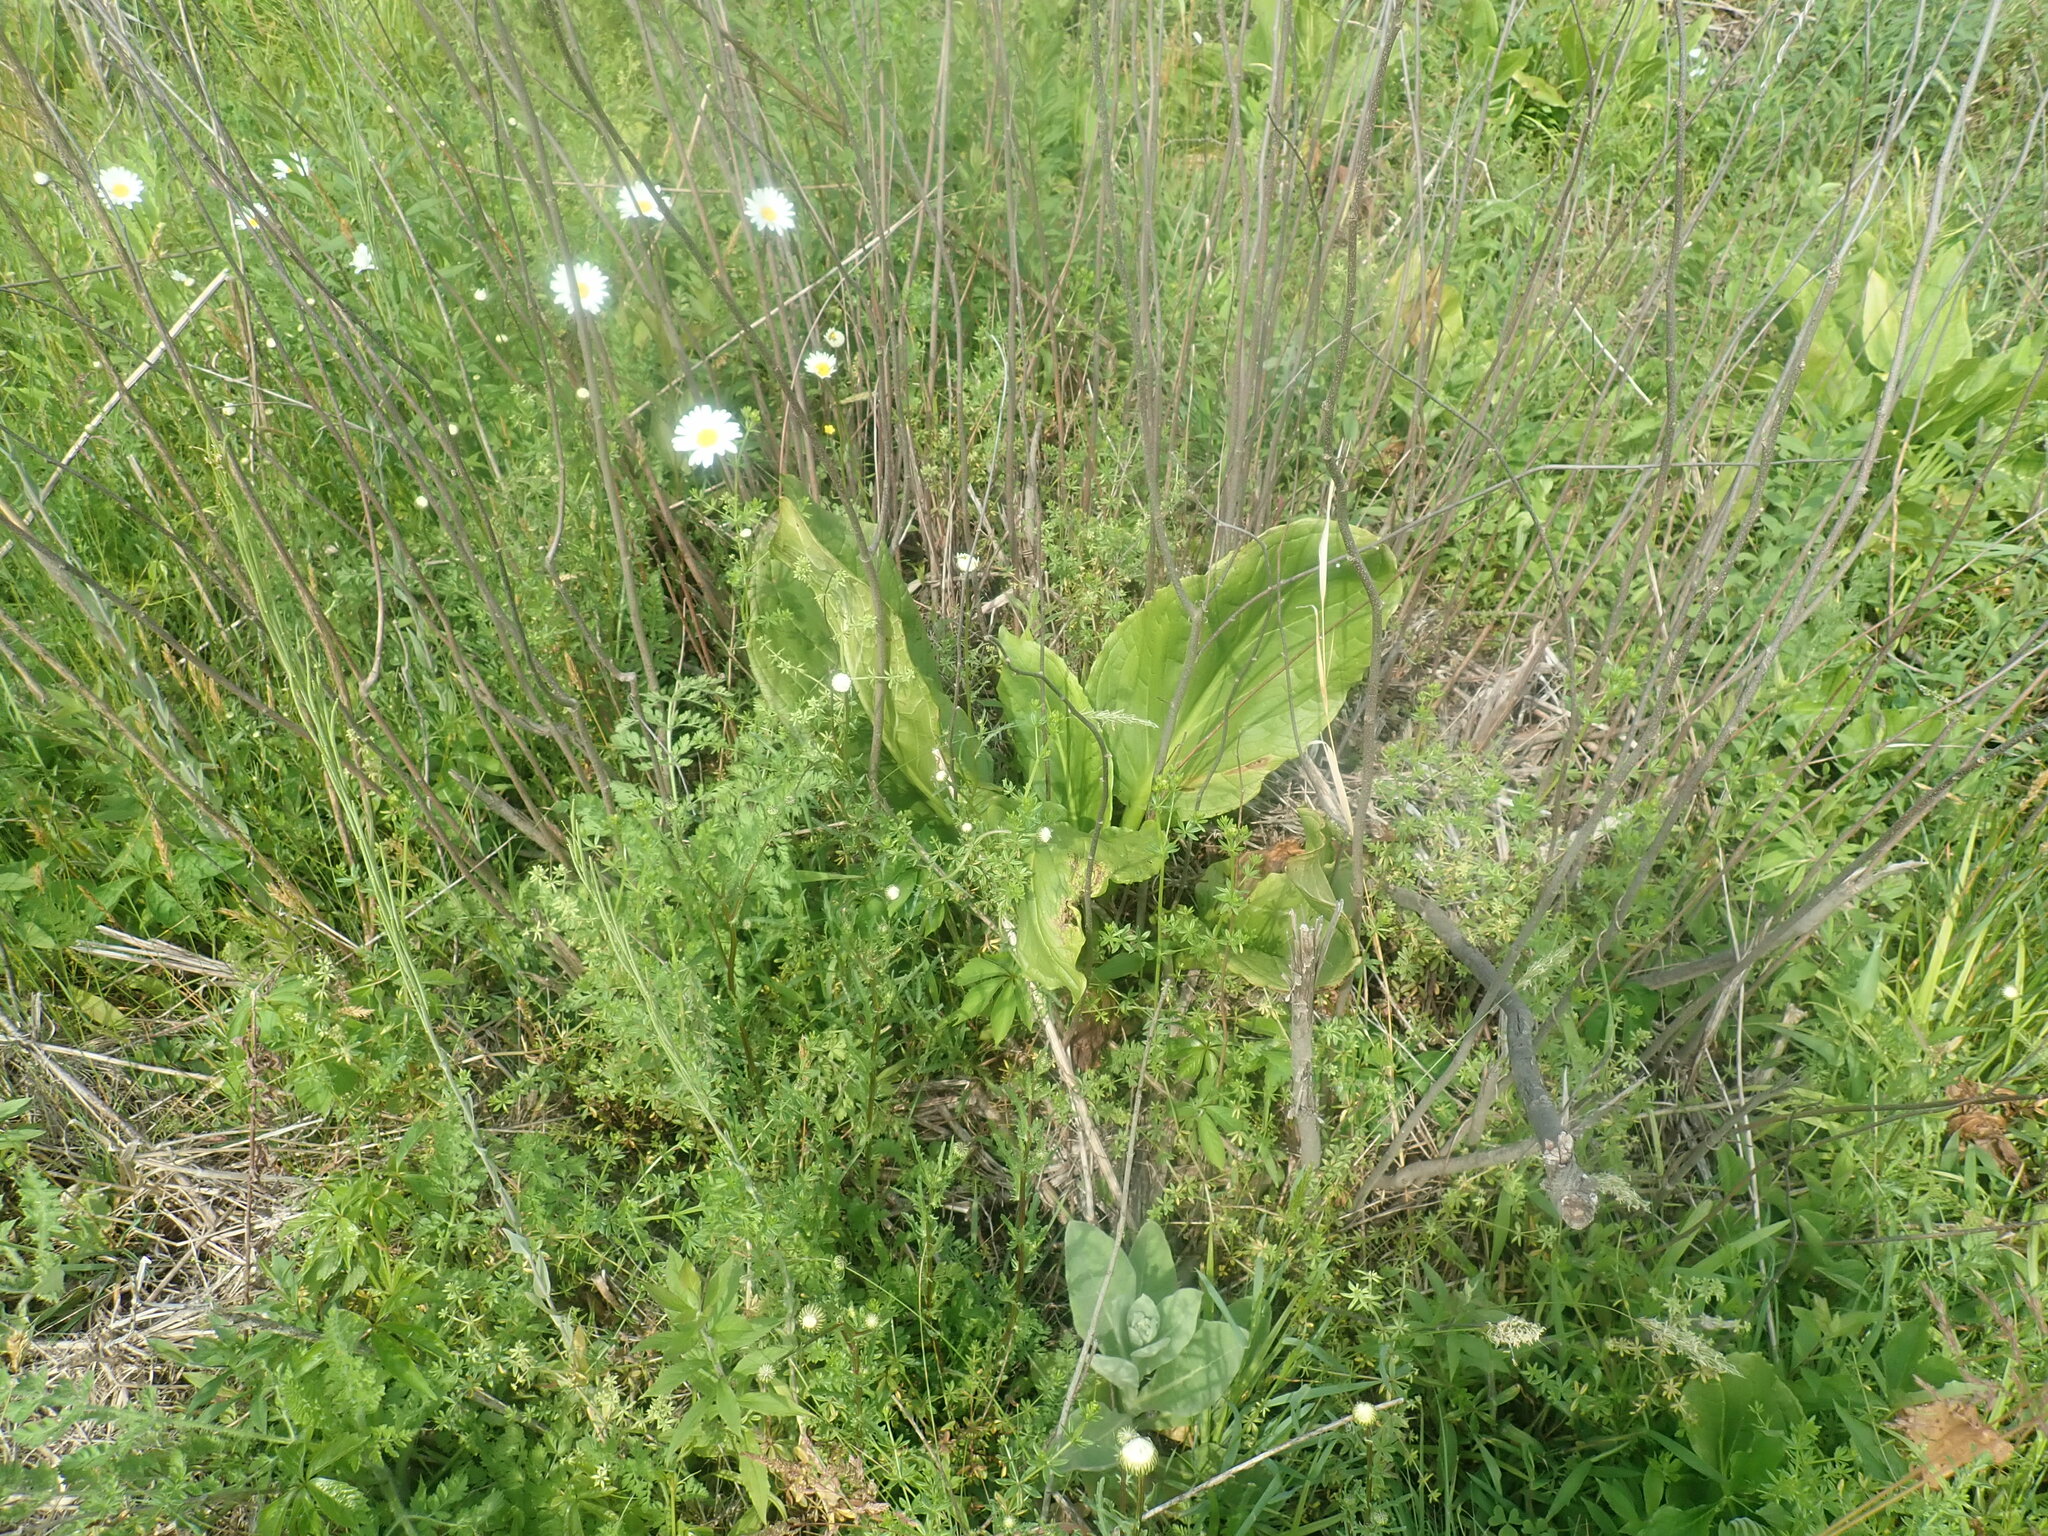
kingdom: Plantae
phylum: Tracheophyta
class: Liliopsida
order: Alismatales
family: Araceae
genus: Symplocarpus
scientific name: Symplocarpus foetidus
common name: Eastern skunk cabbage
